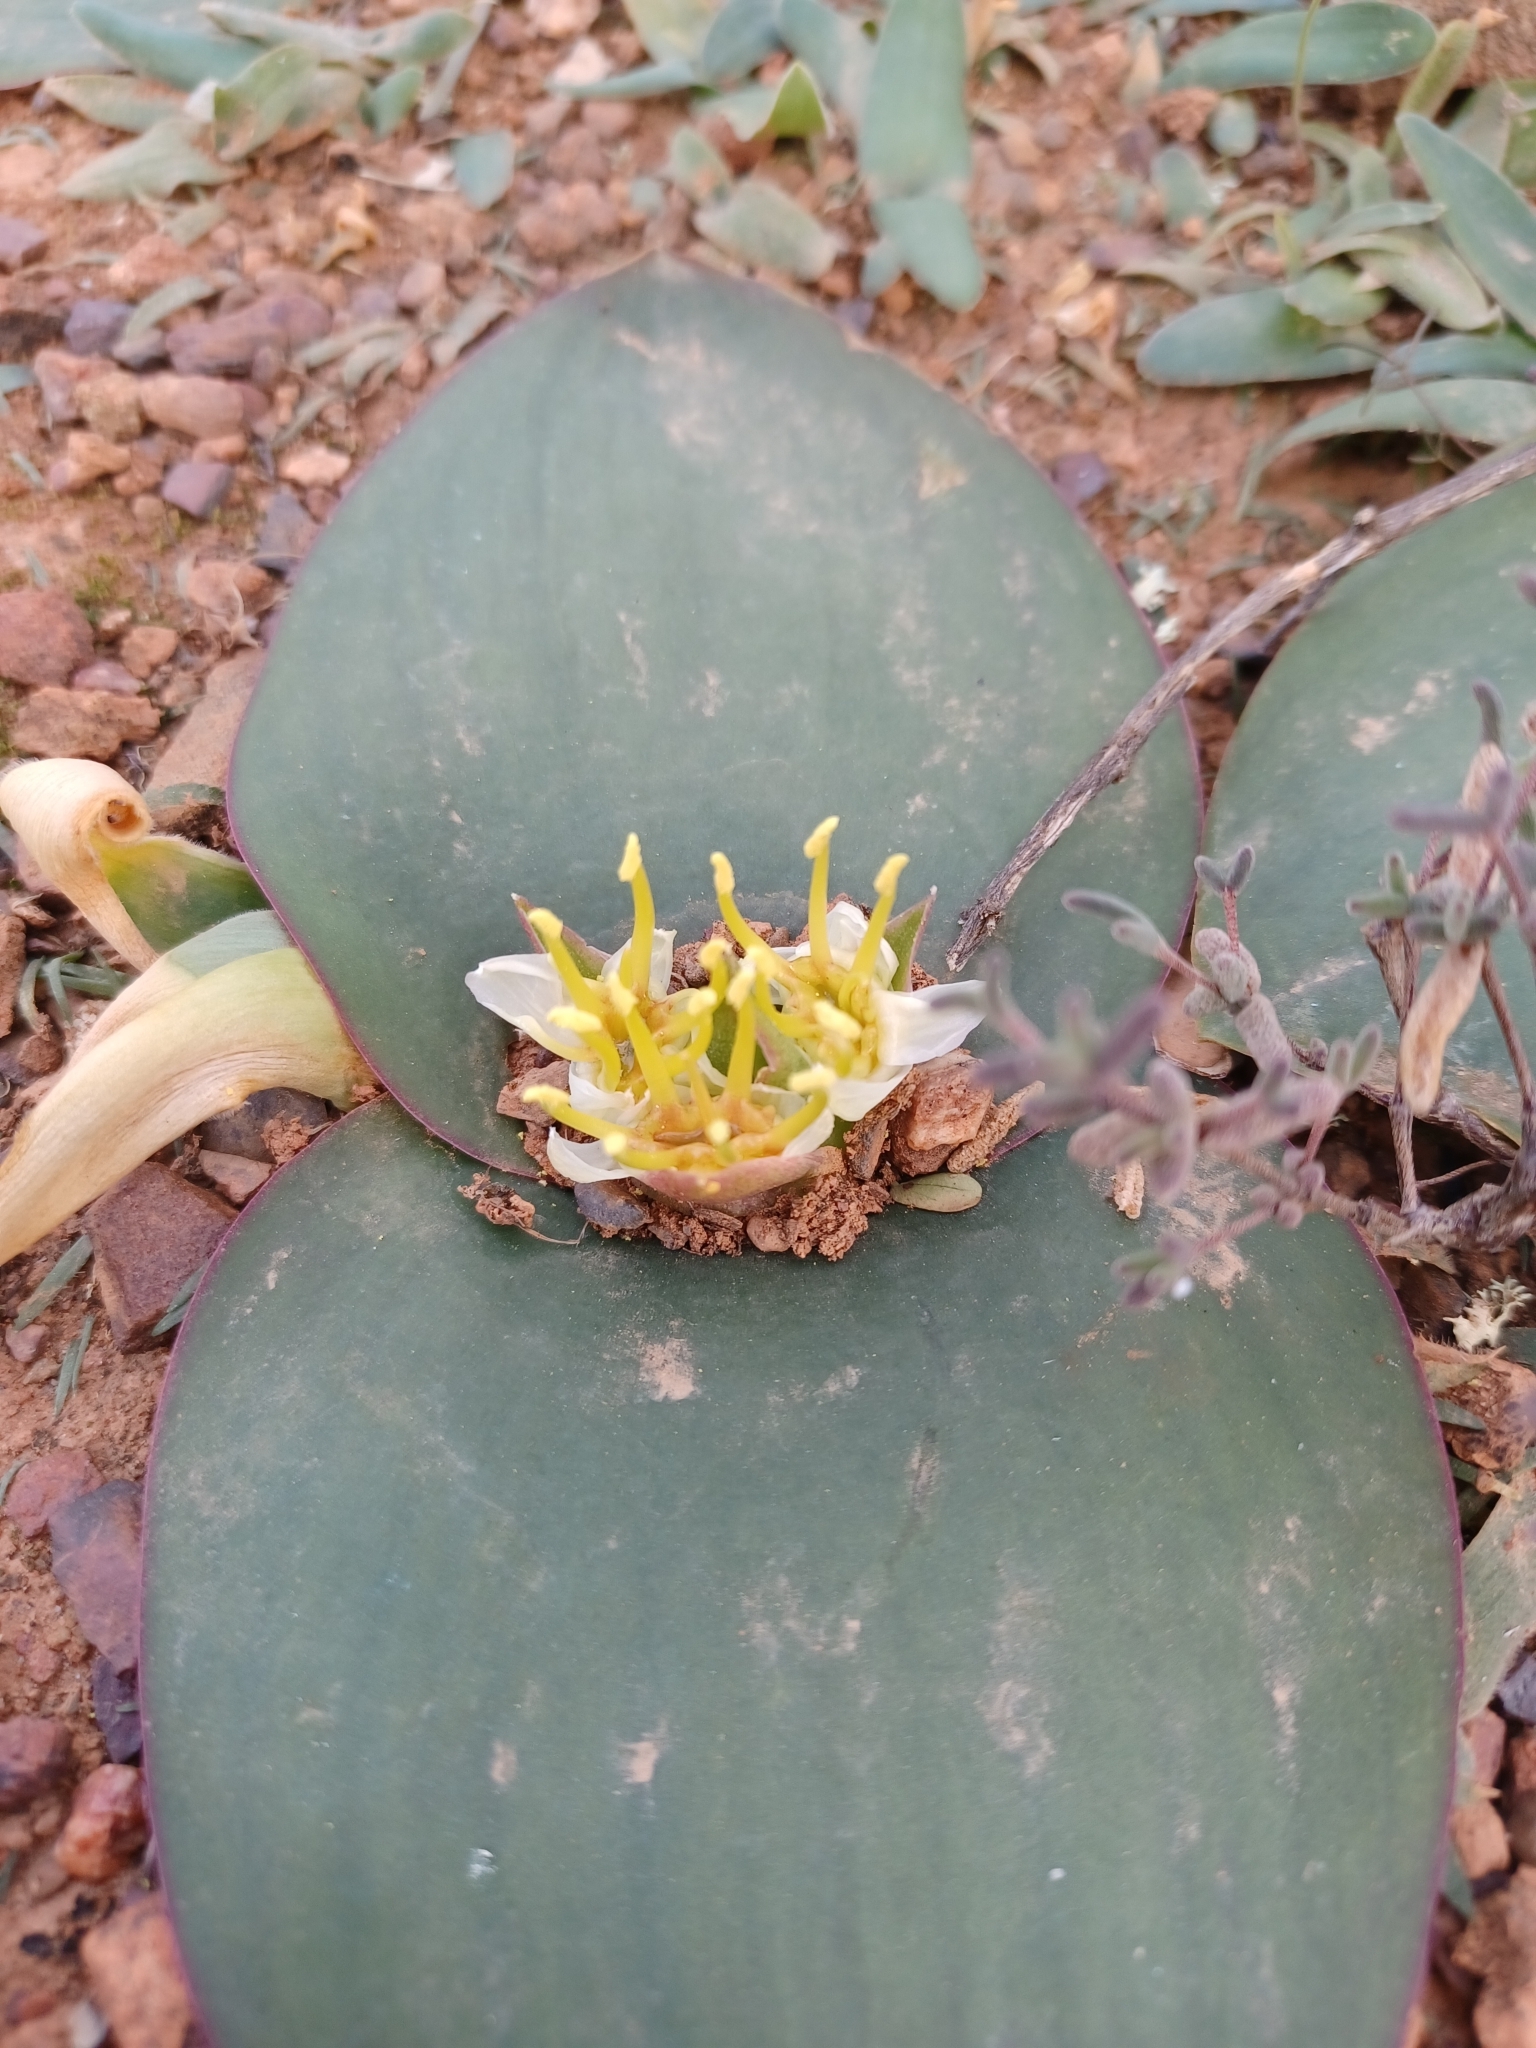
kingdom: Plantae
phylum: Tracheophyta
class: Liliopsida
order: Asparagales
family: Asparagaceae
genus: Massonia
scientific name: Massonia depressa
